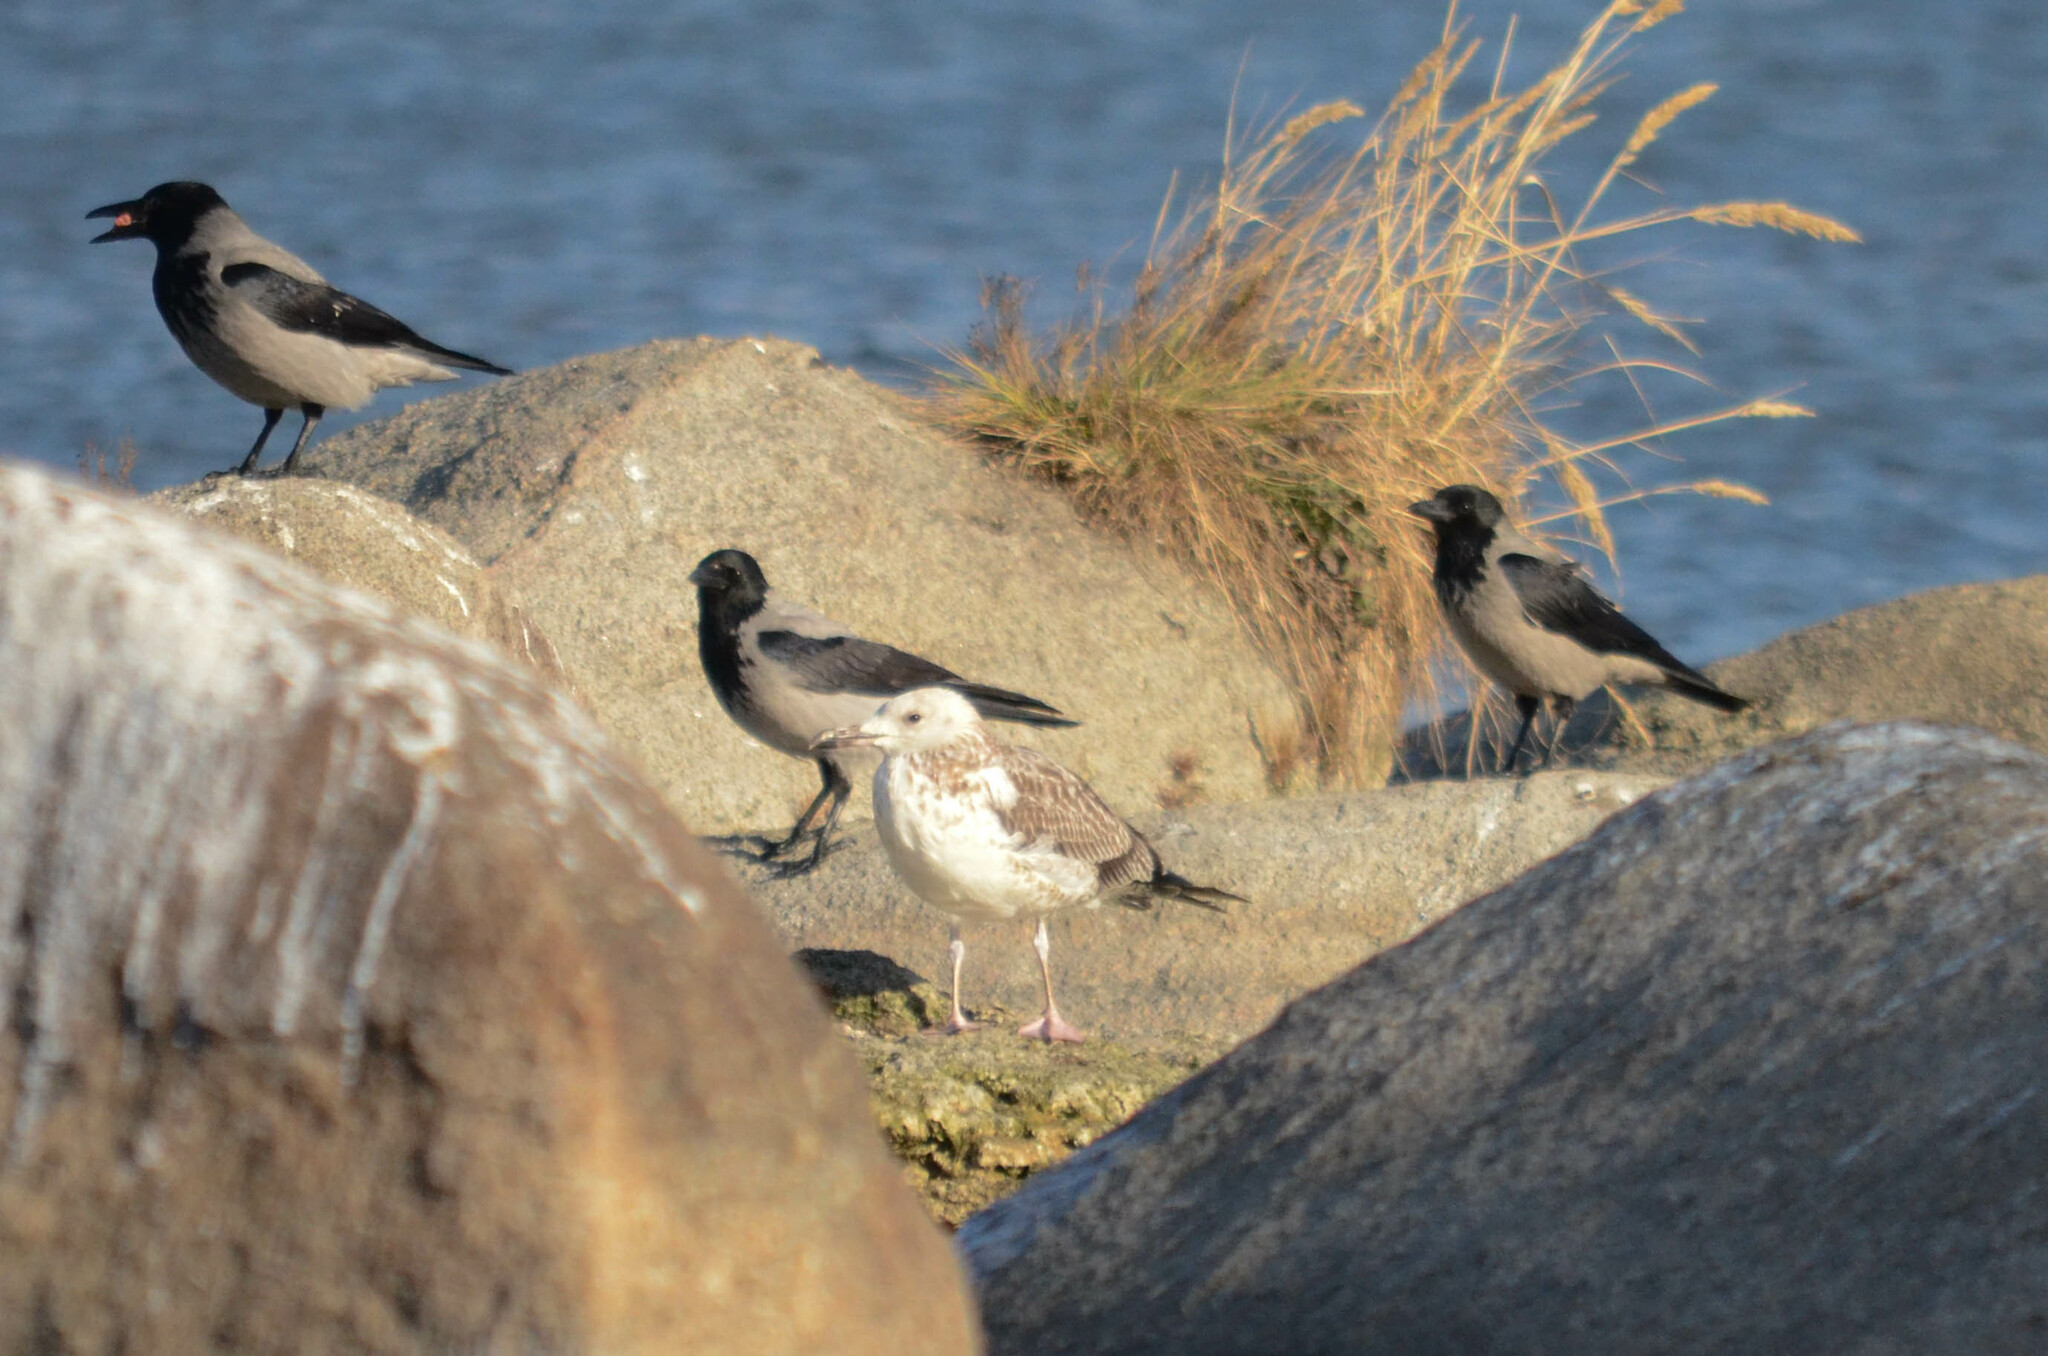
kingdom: Animalia
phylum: Chordata
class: Aves
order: Charadriiformes
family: Laridae
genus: Larus
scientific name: Larus fuscus
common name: Lesser black-backed gull
